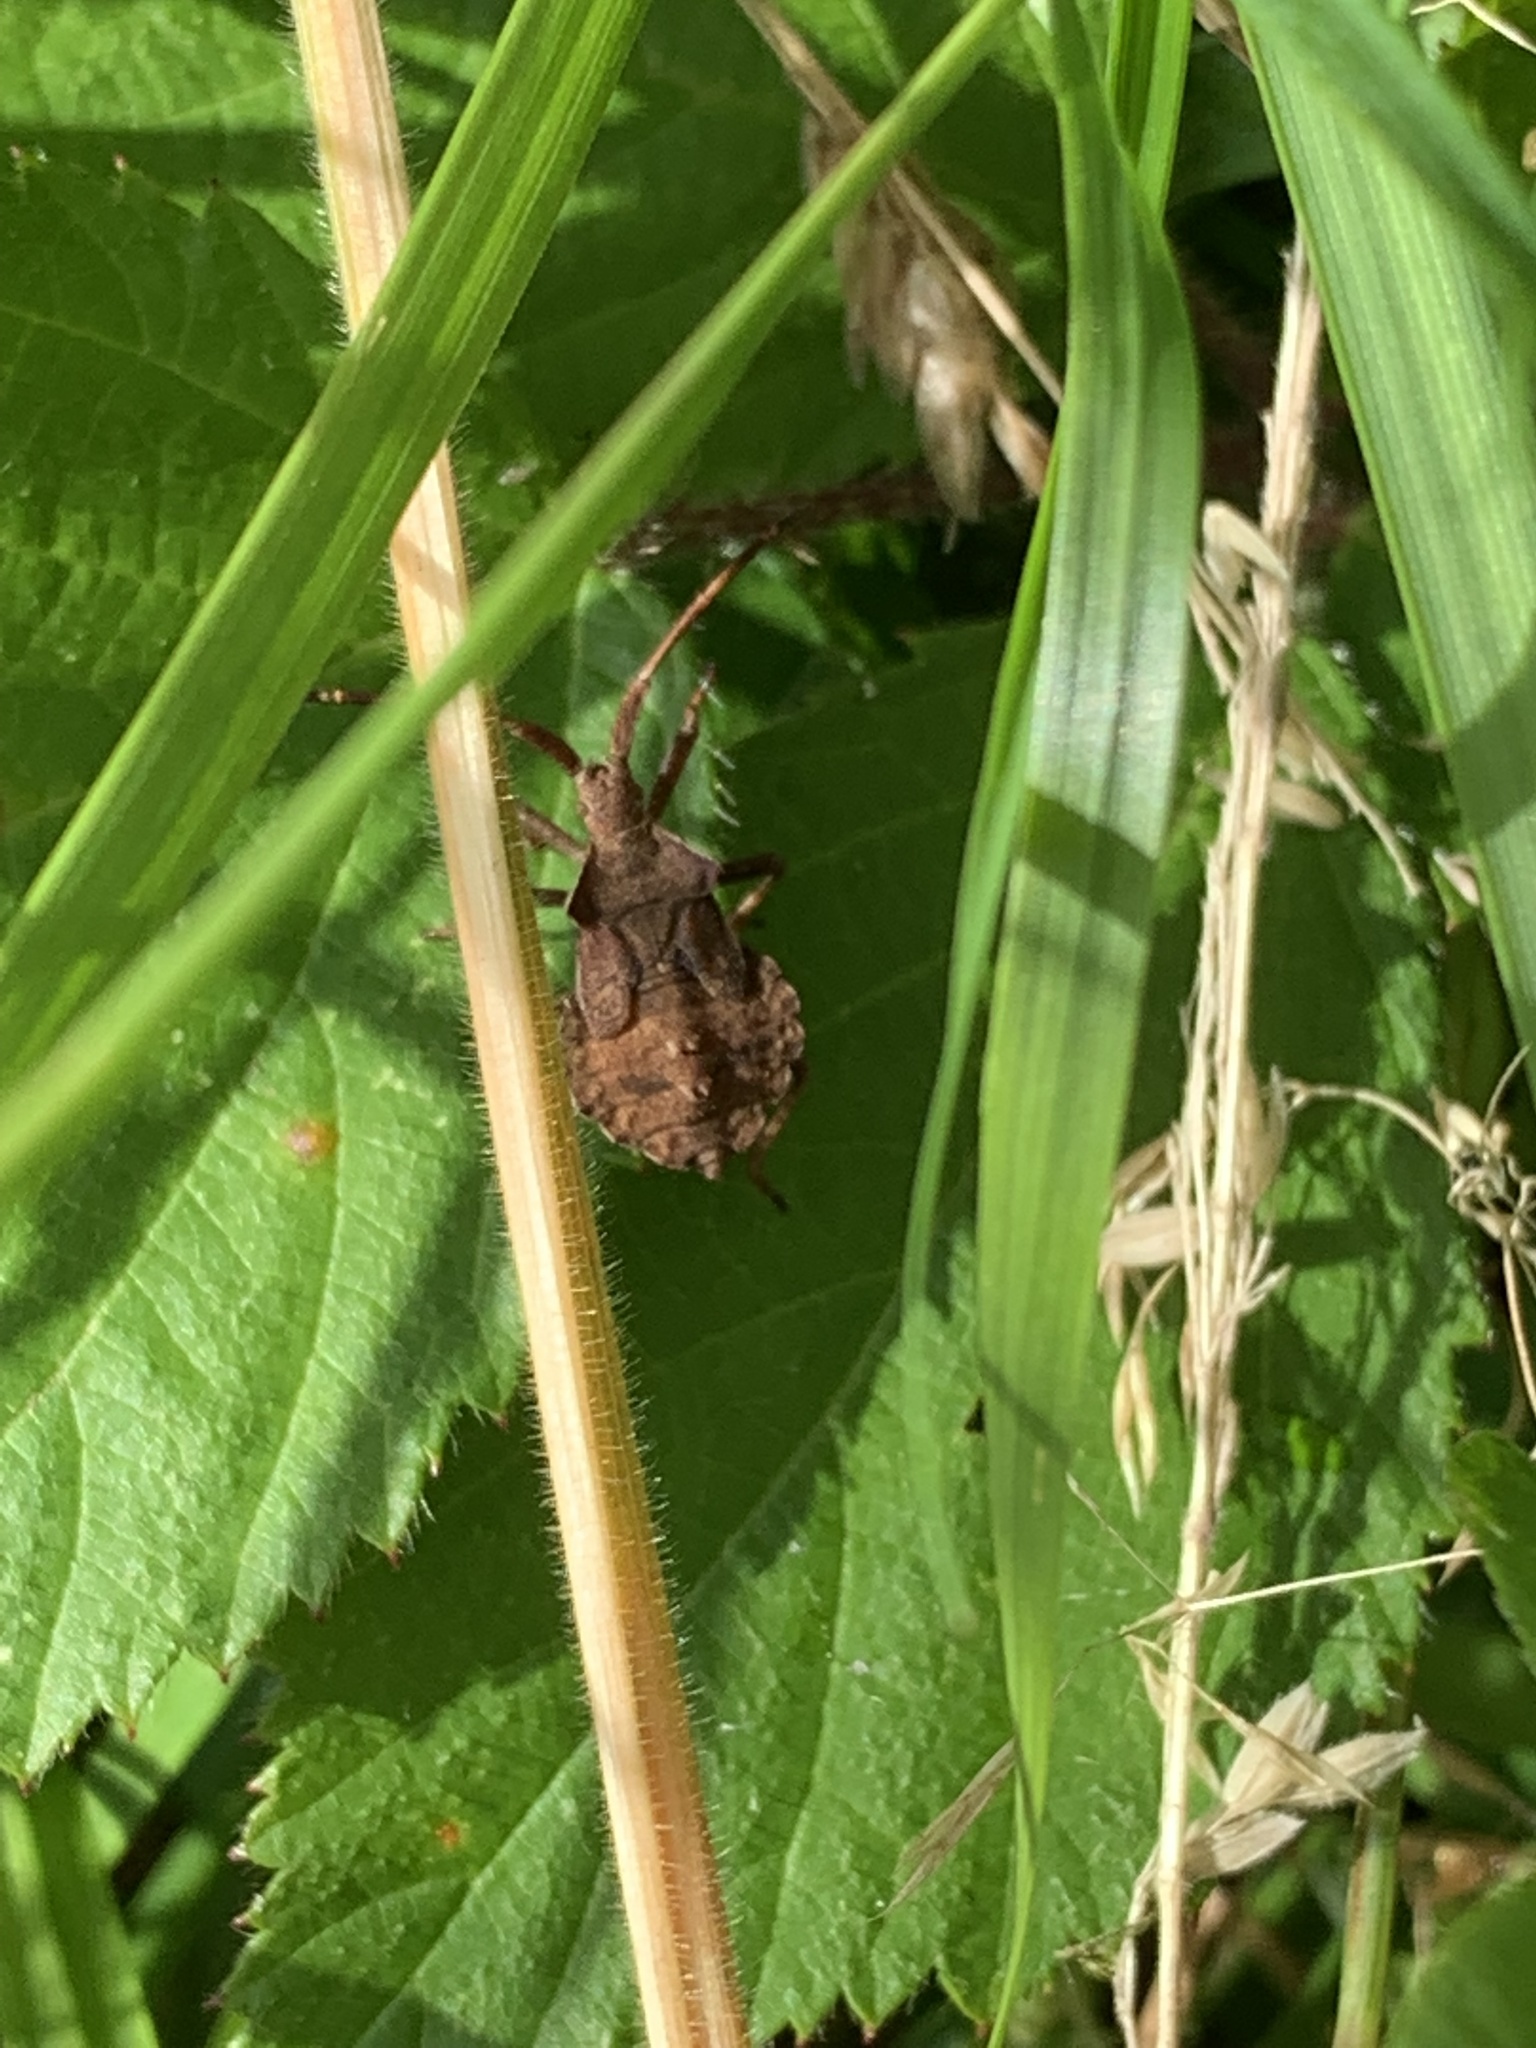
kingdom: Animalia
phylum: Arthropoda
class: Insecta
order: Hemiptera
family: Coreidae
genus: Coreus
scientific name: Coreus marginatus
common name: Dock bug
